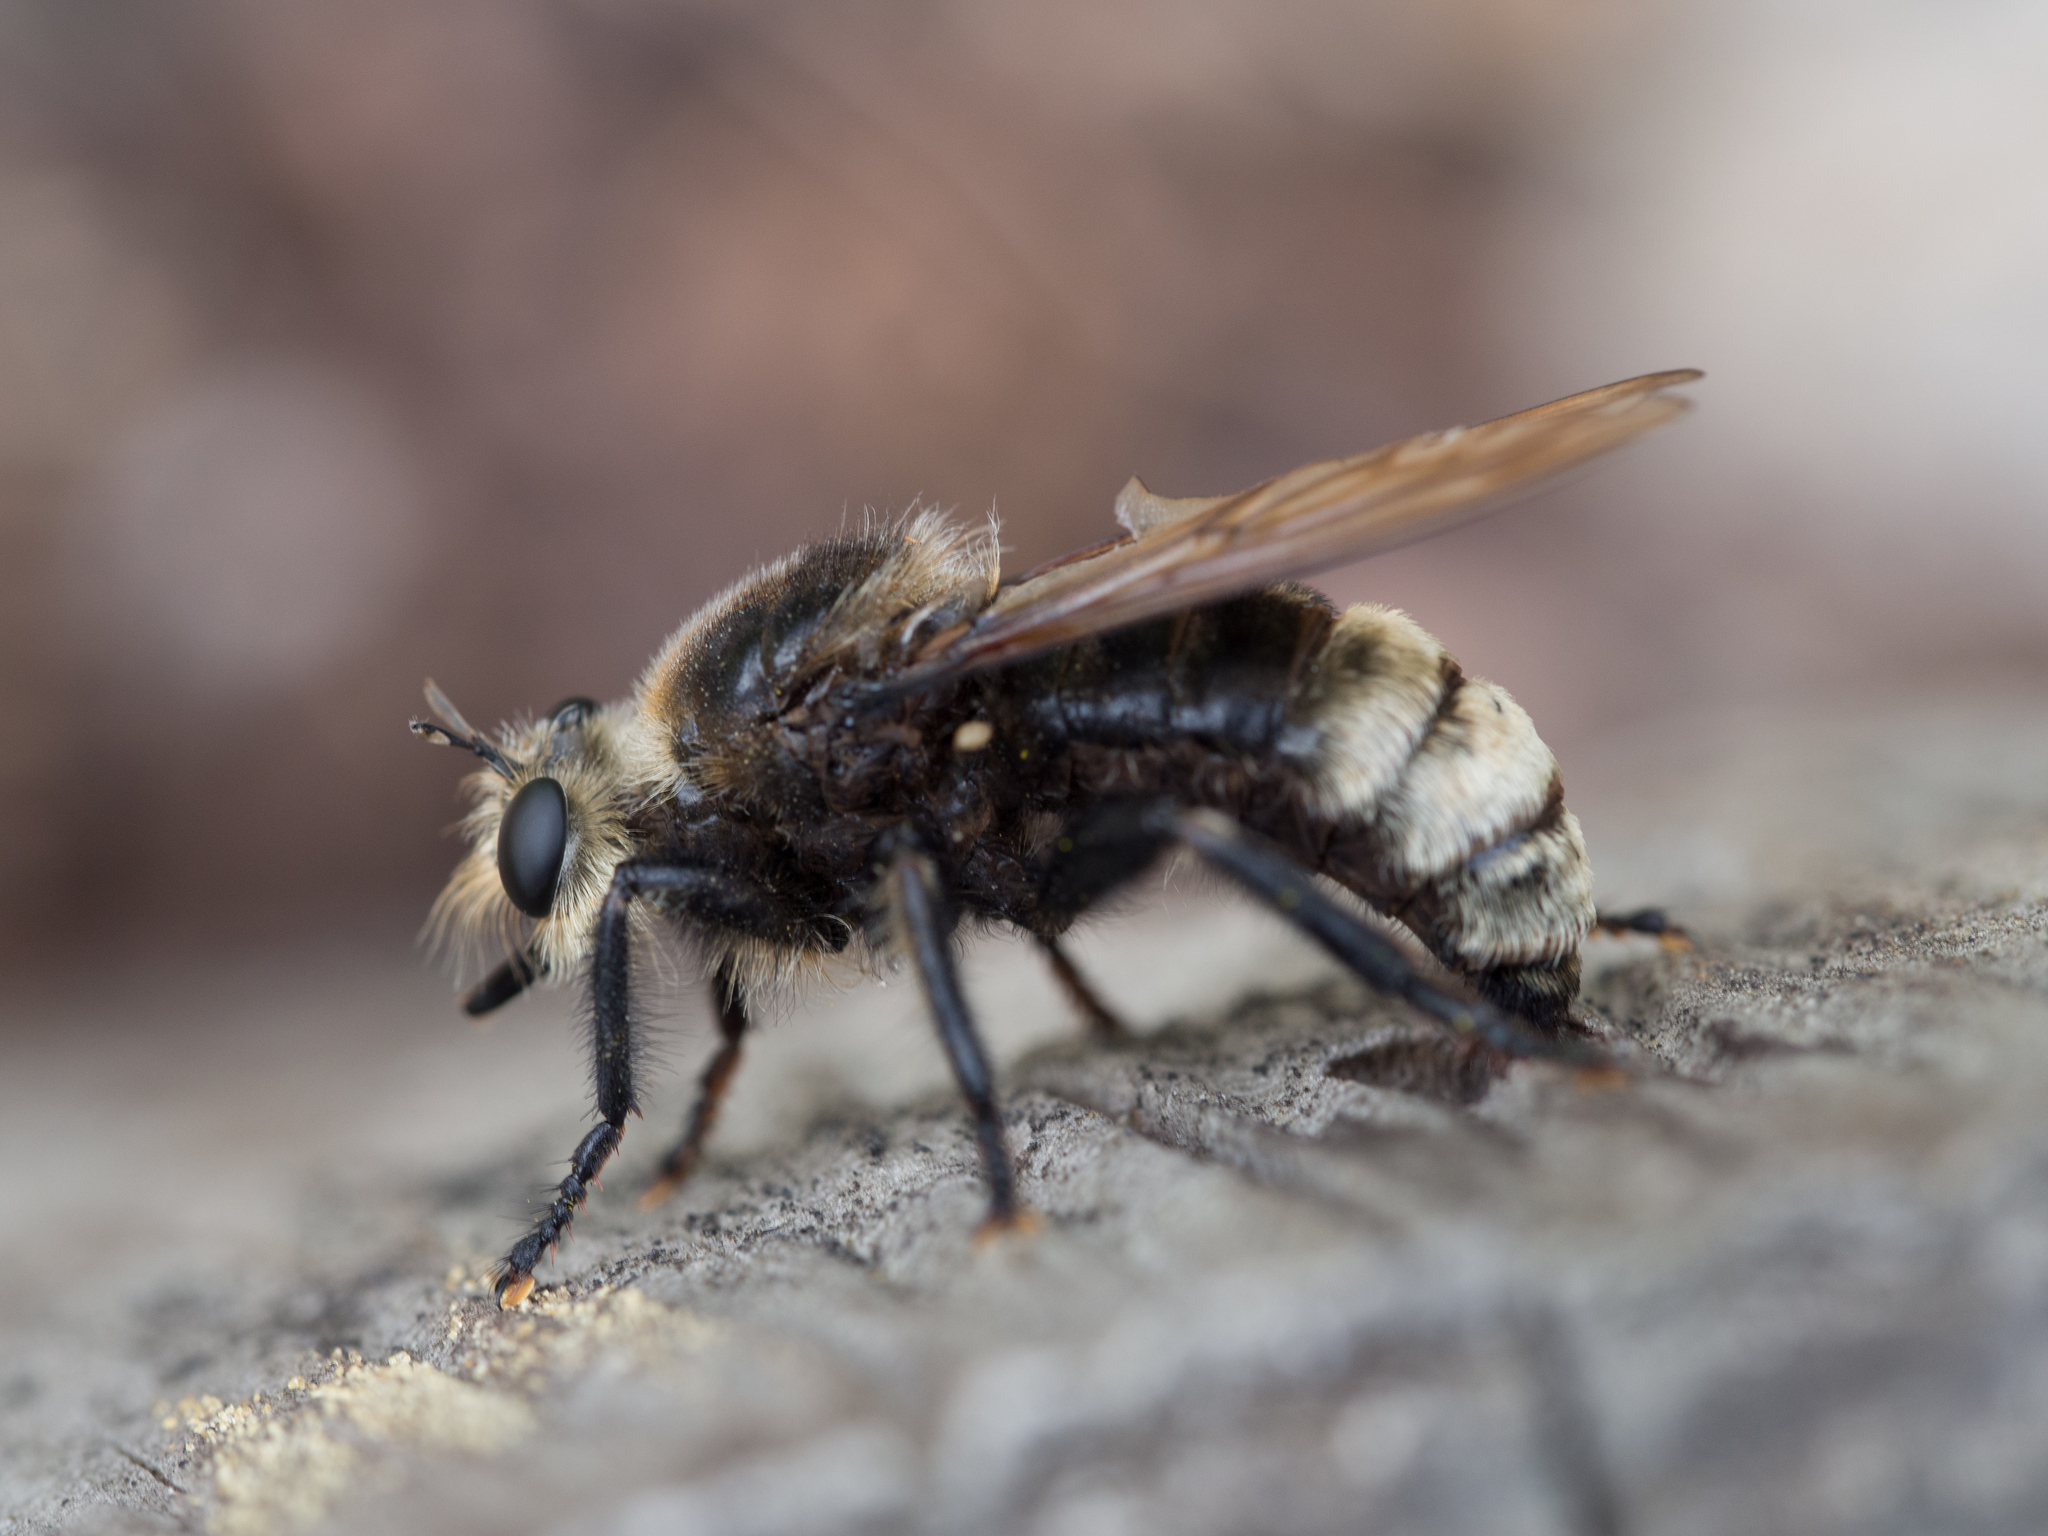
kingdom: Animalia
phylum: Arthropoda
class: Insecta
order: Diptera
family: Asilidae
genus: Laphria
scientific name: Laphria gibbosa
